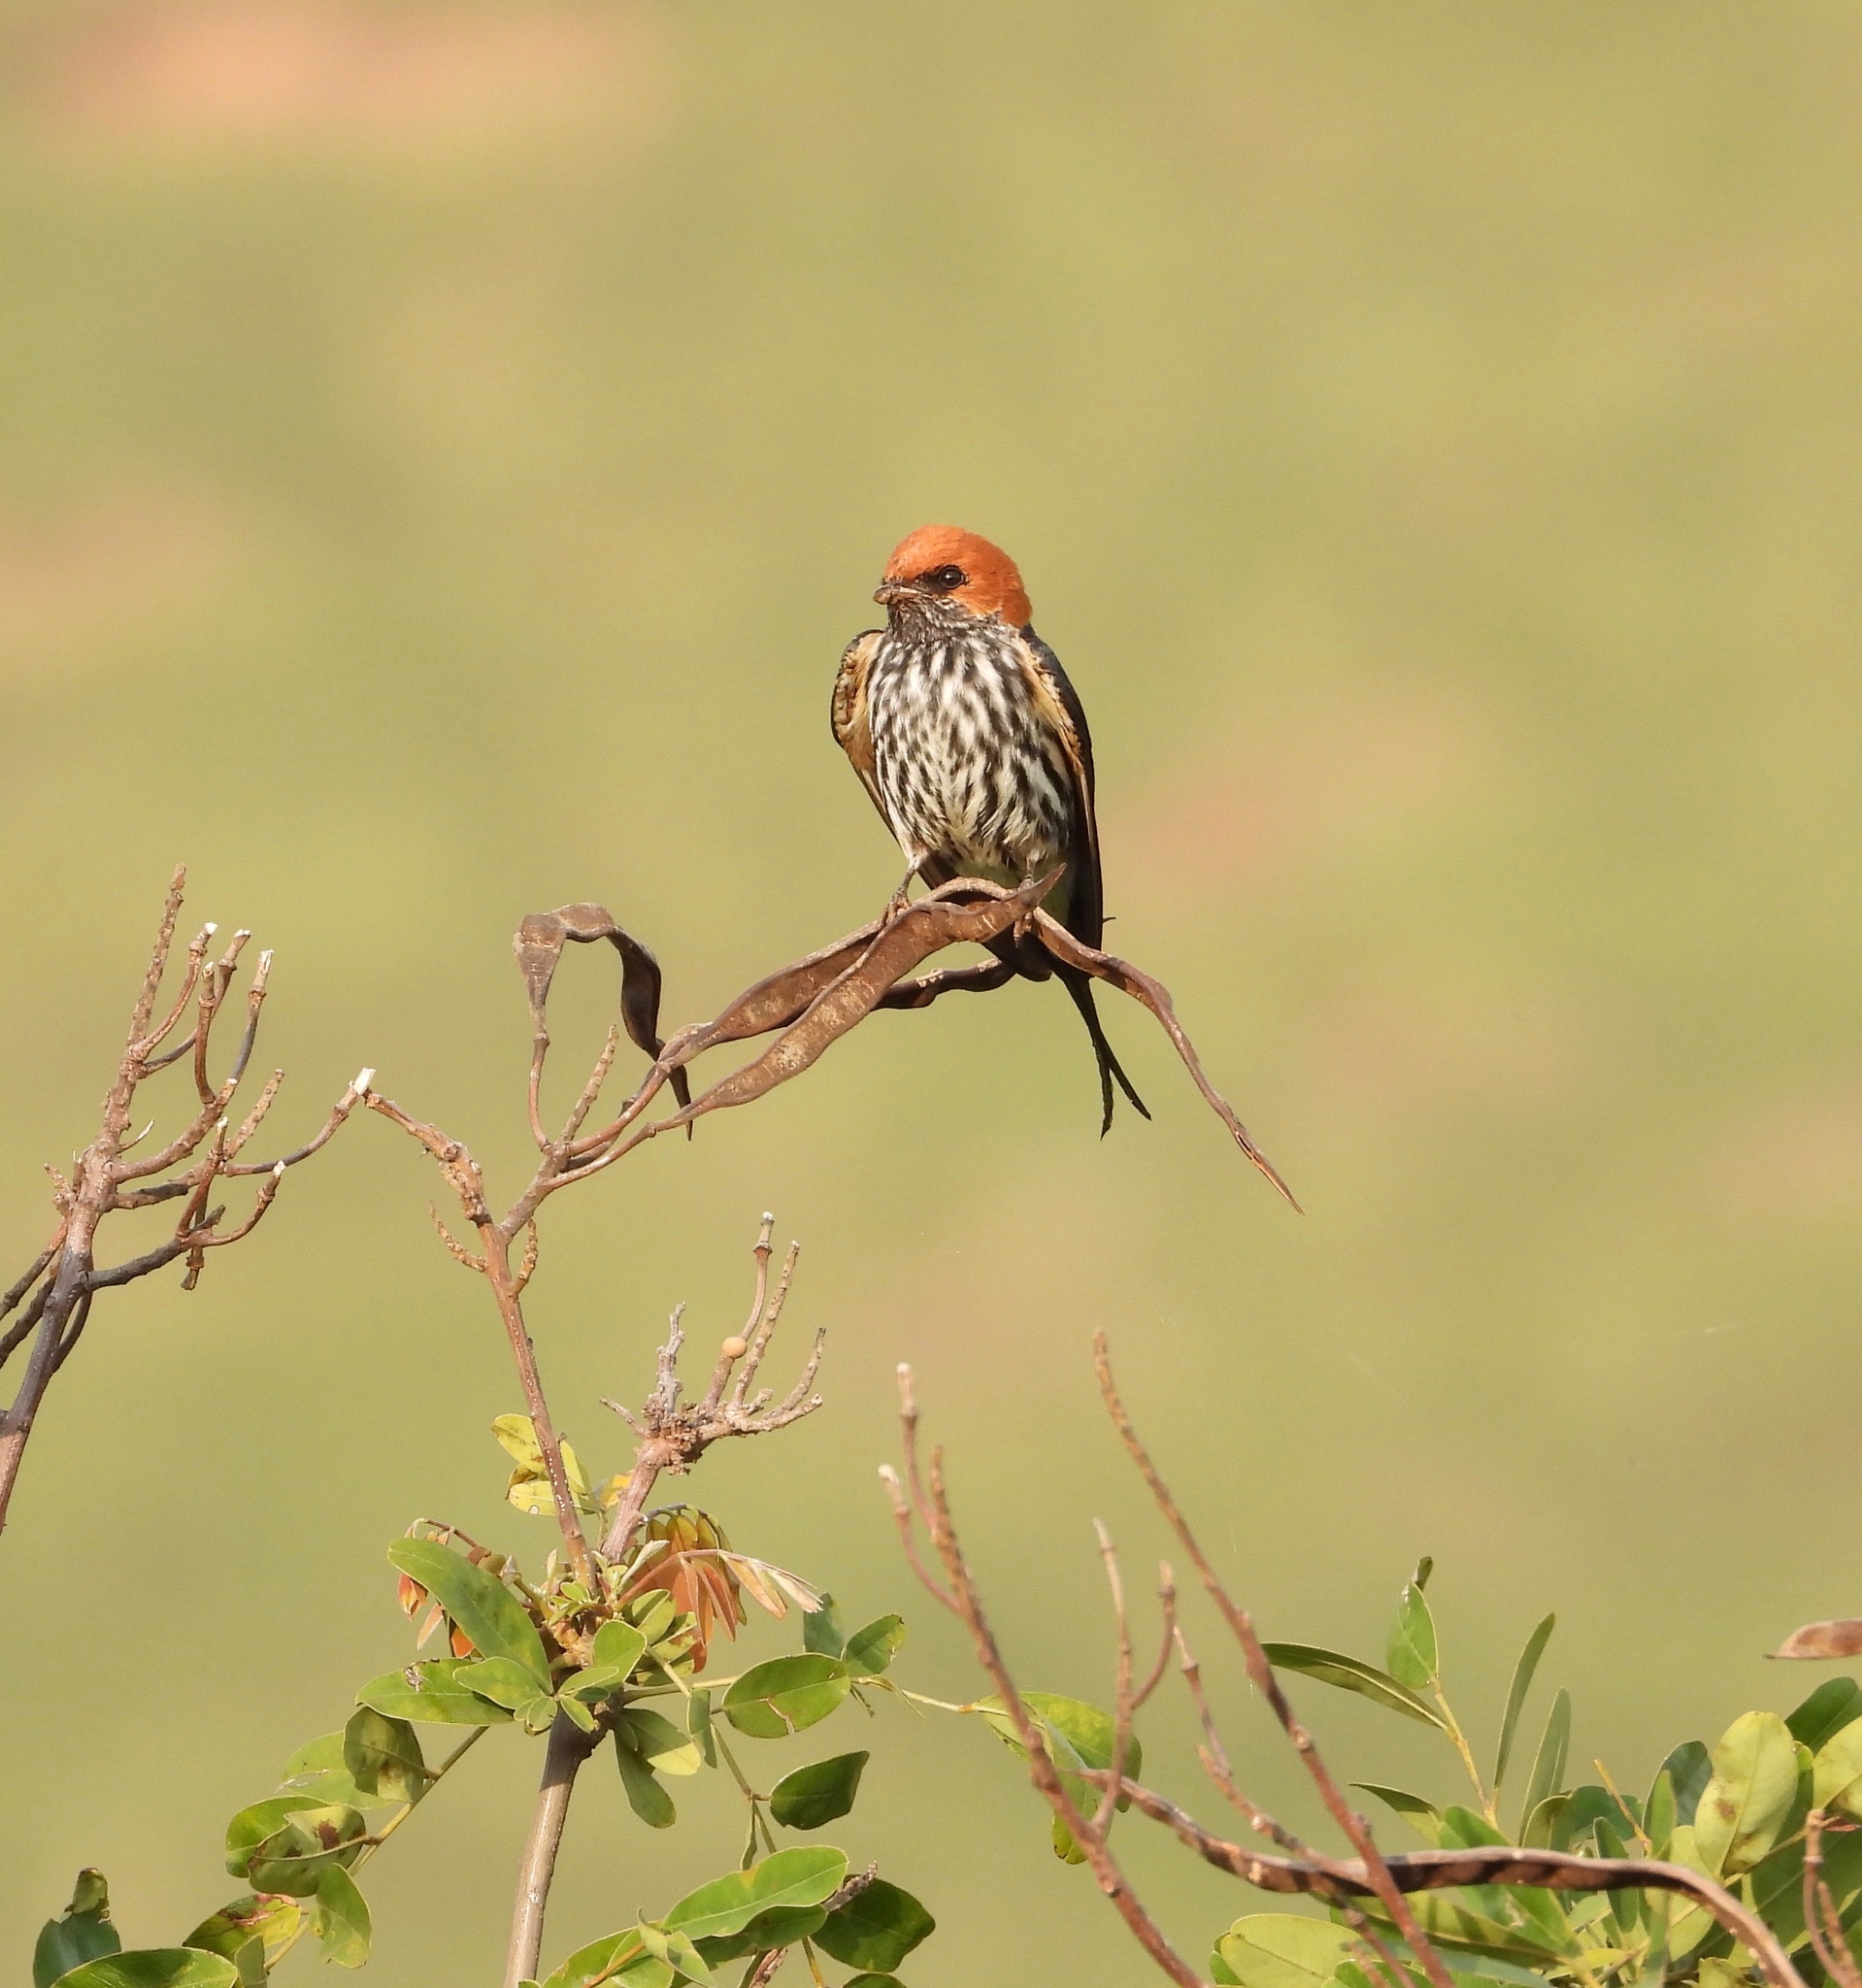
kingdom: Animalia
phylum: Chordata
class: Aves
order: Passeriformes
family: Hirundinidae
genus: Cecropis
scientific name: Cecropis abyssinica
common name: Lesser striped-swallow
